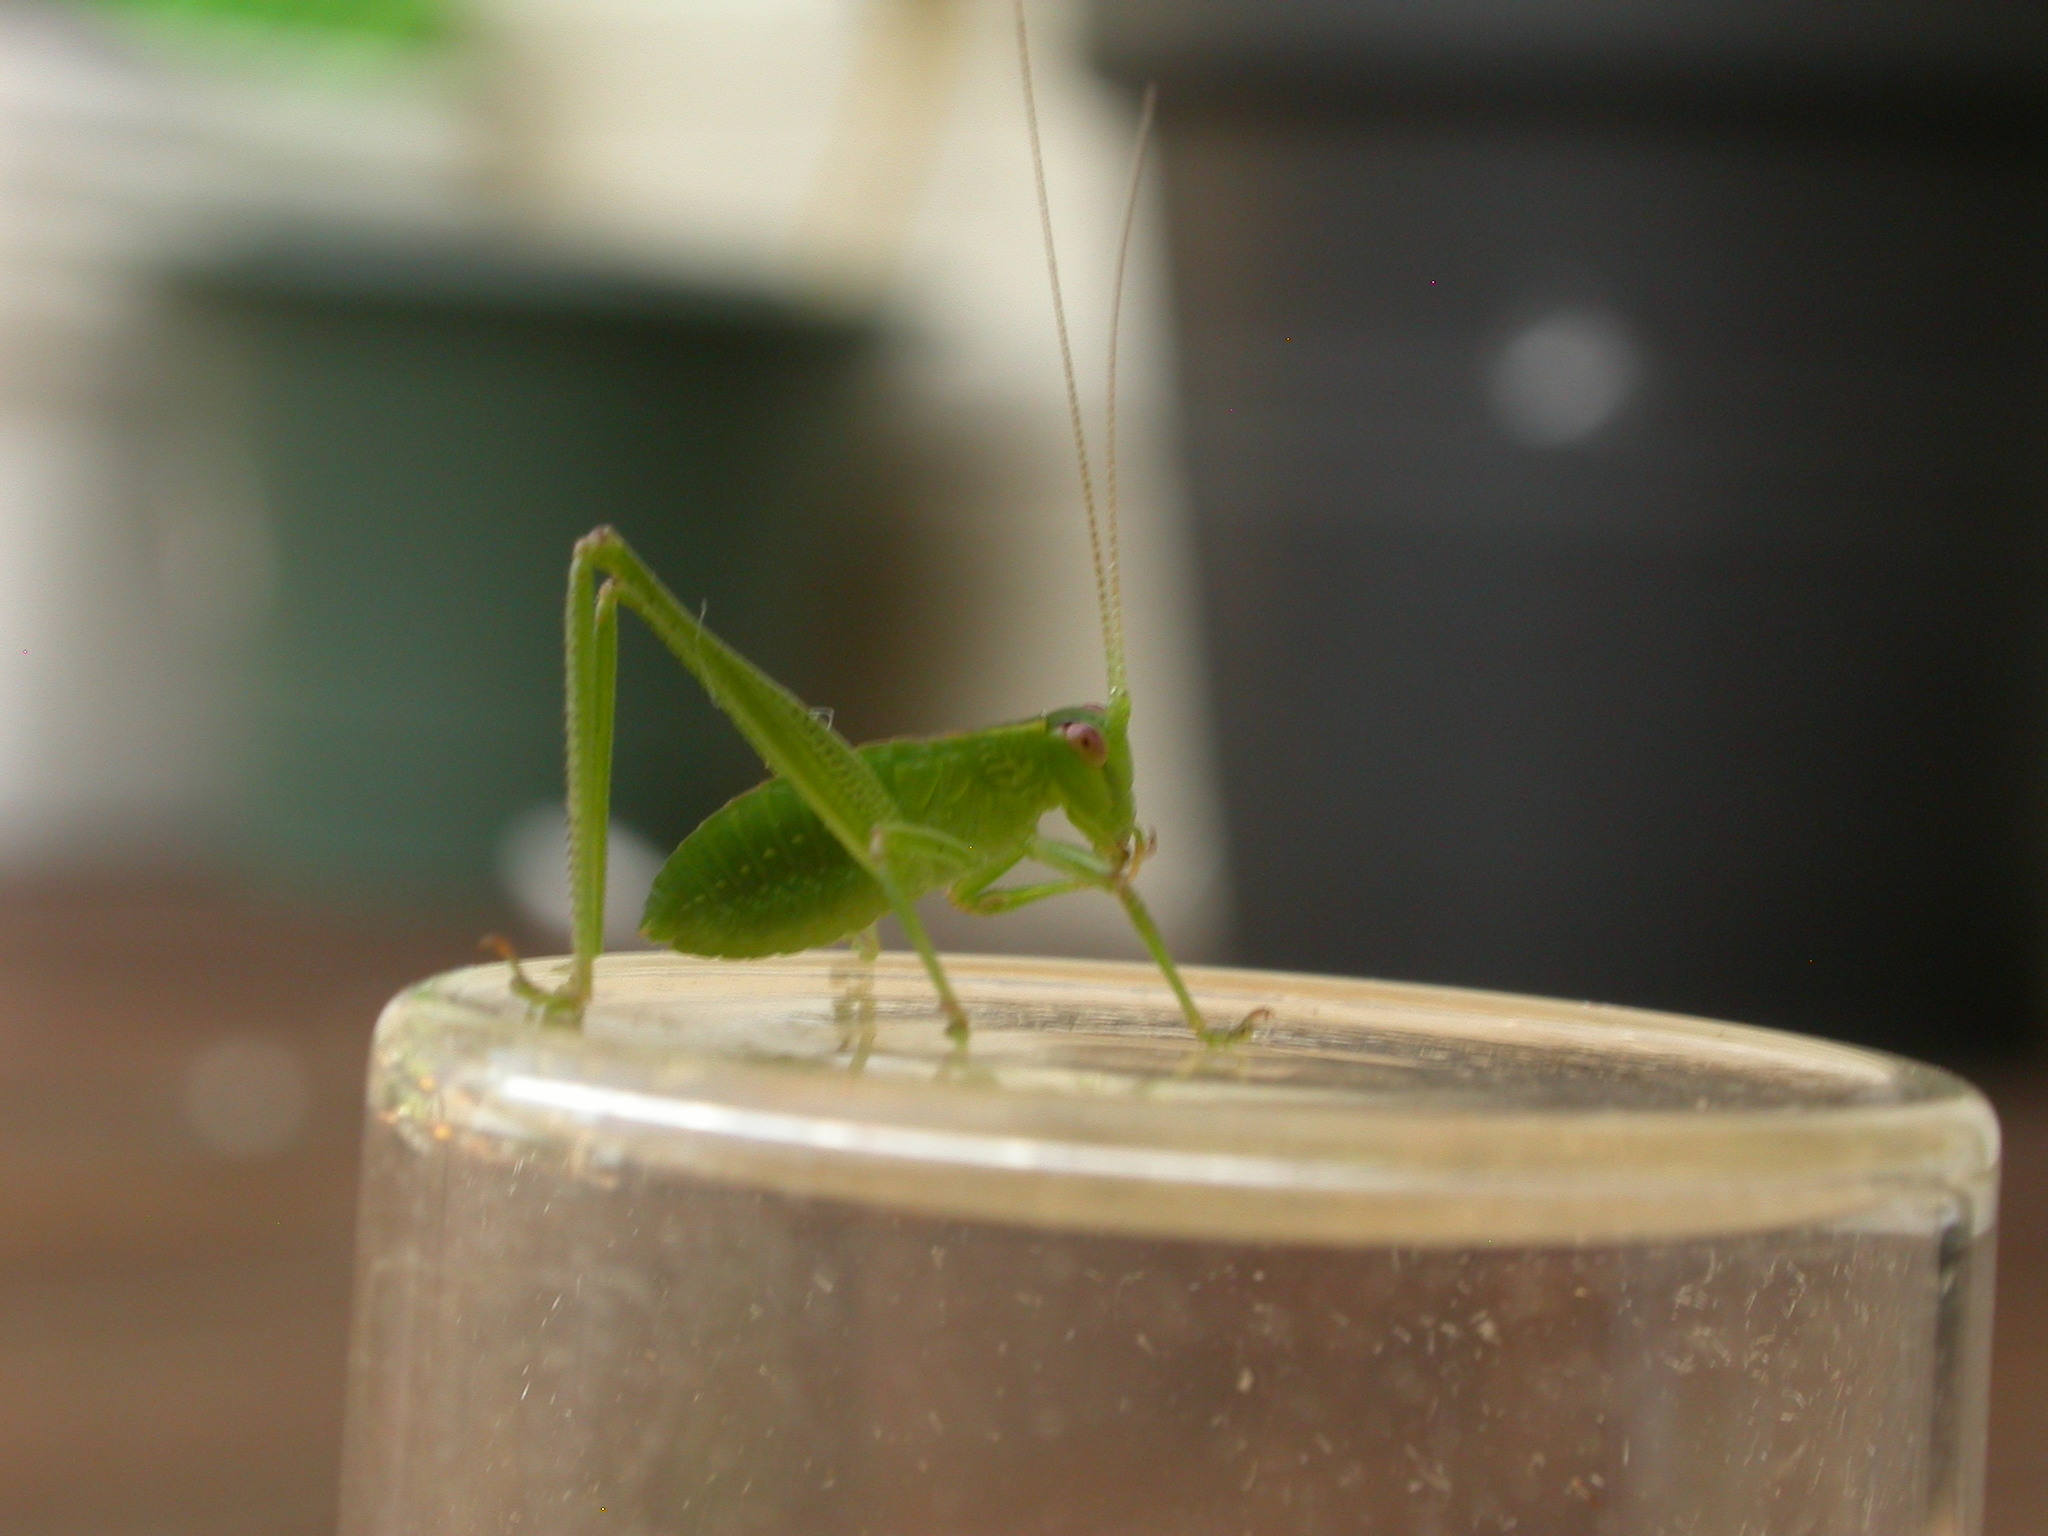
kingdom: Animalia
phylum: Arthropoda
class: Insecta
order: Orthoptera
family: Tettigoniidae
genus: Caedicia
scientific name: Caedicia simplex
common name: Common garden katydid
